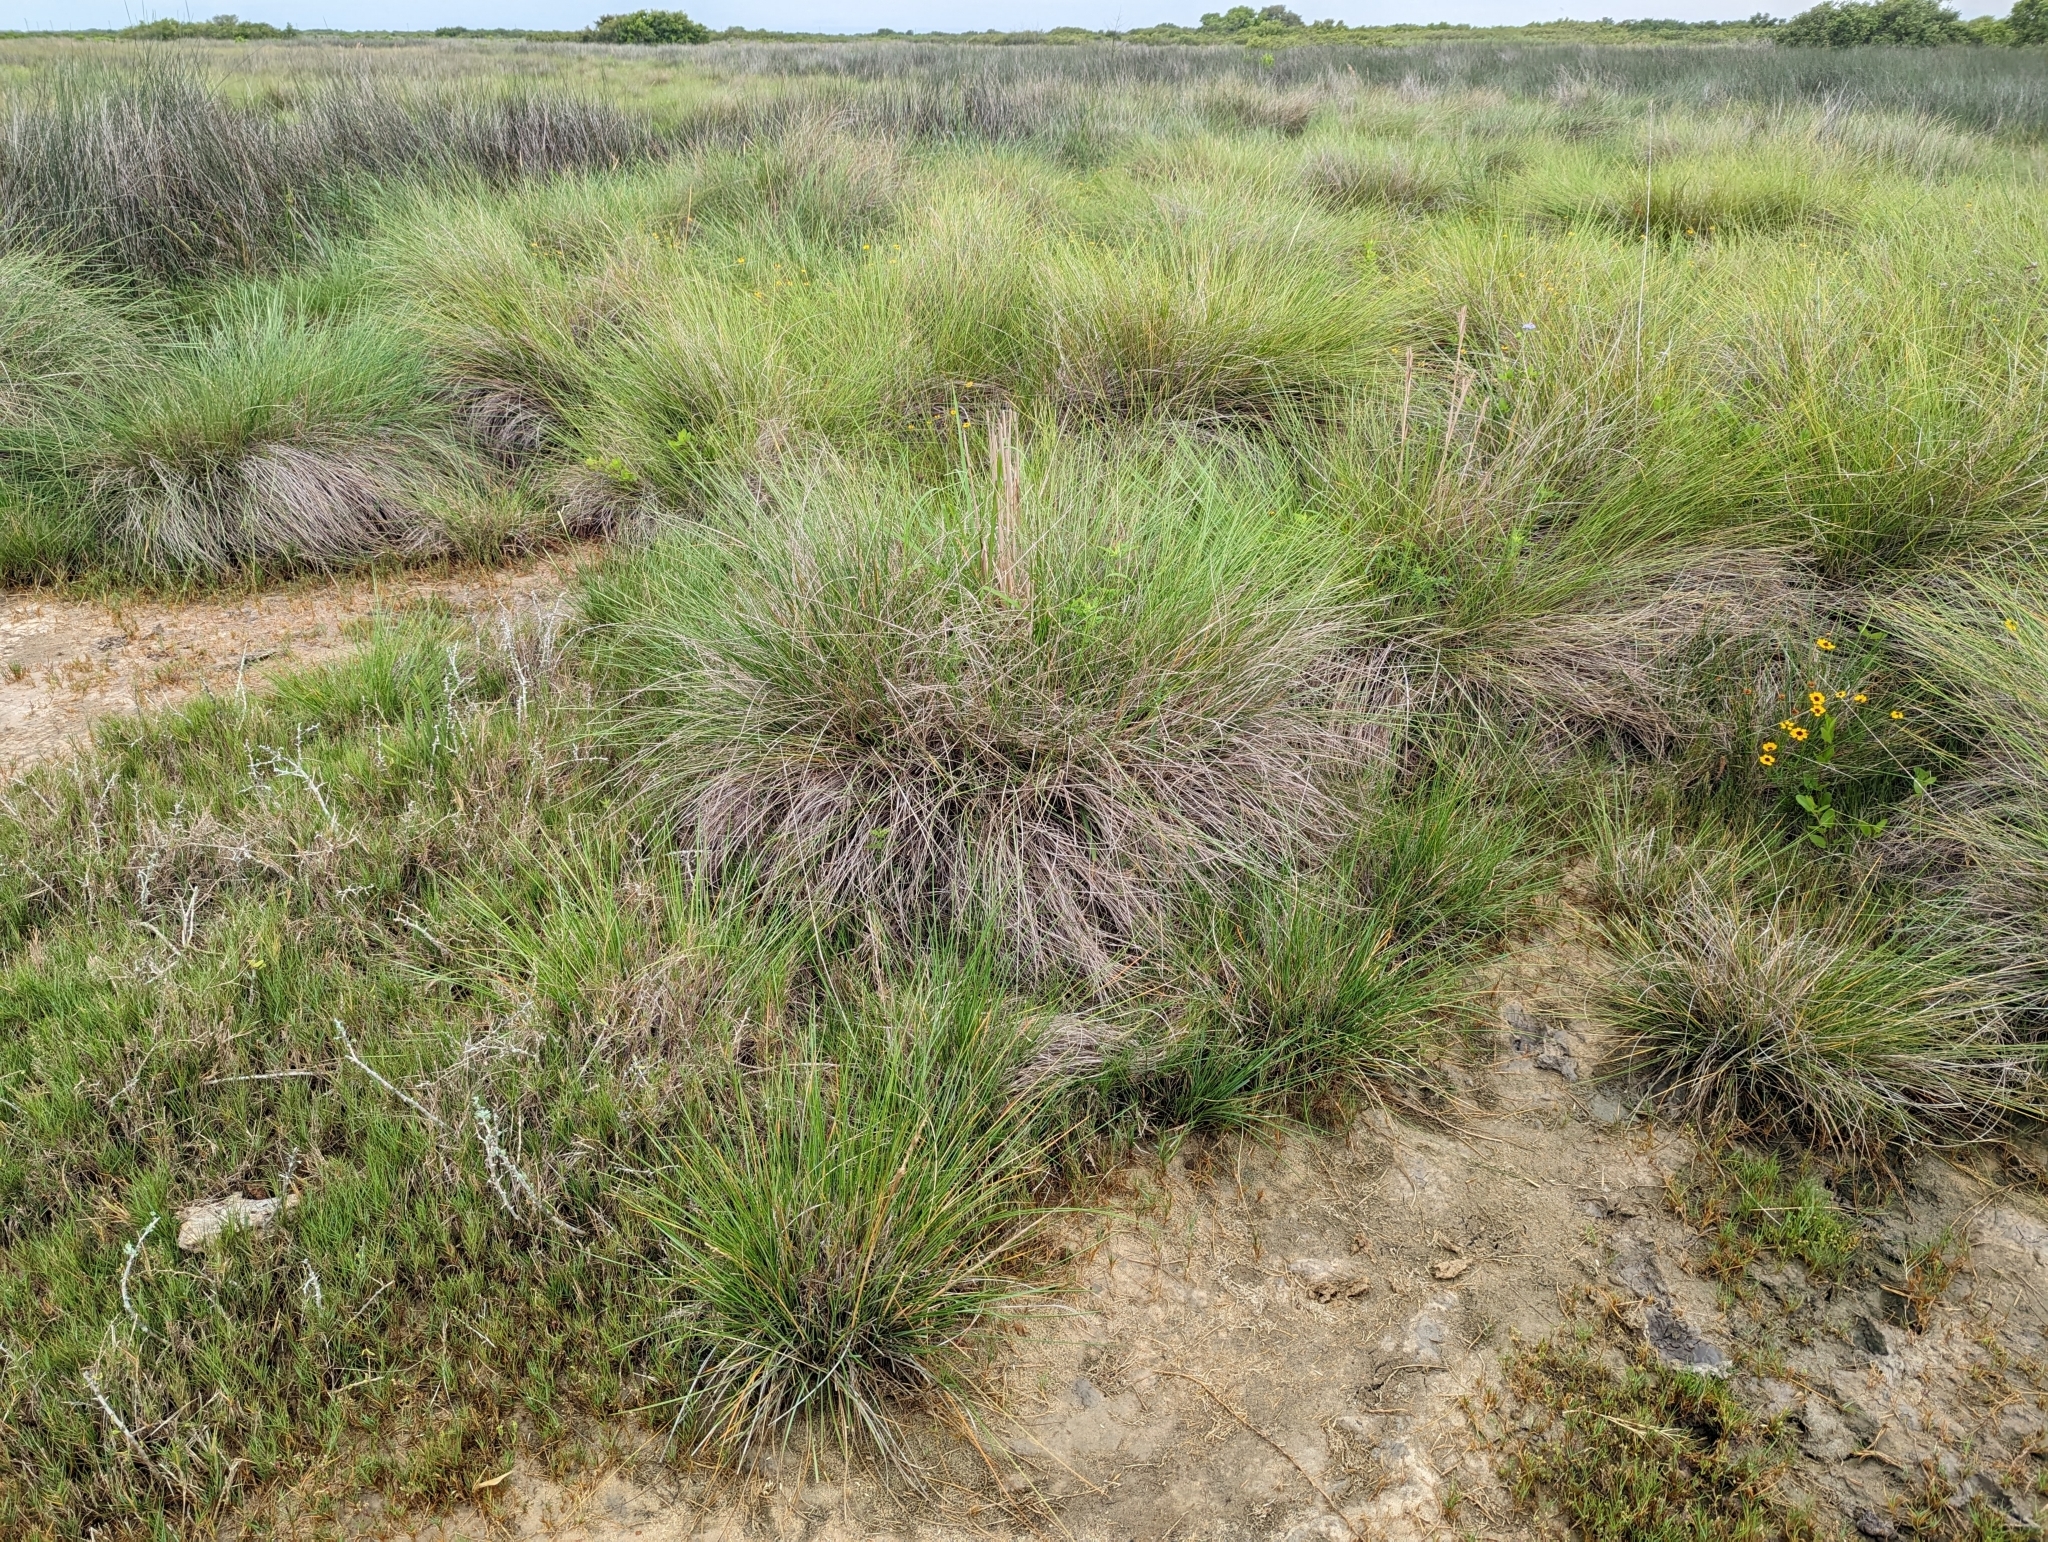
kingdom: Plantae
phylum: Tracheophyta
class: Liliopsida
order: Poales
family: Poaceae
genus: Sporobolus
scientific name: Sporobolus spartinae
